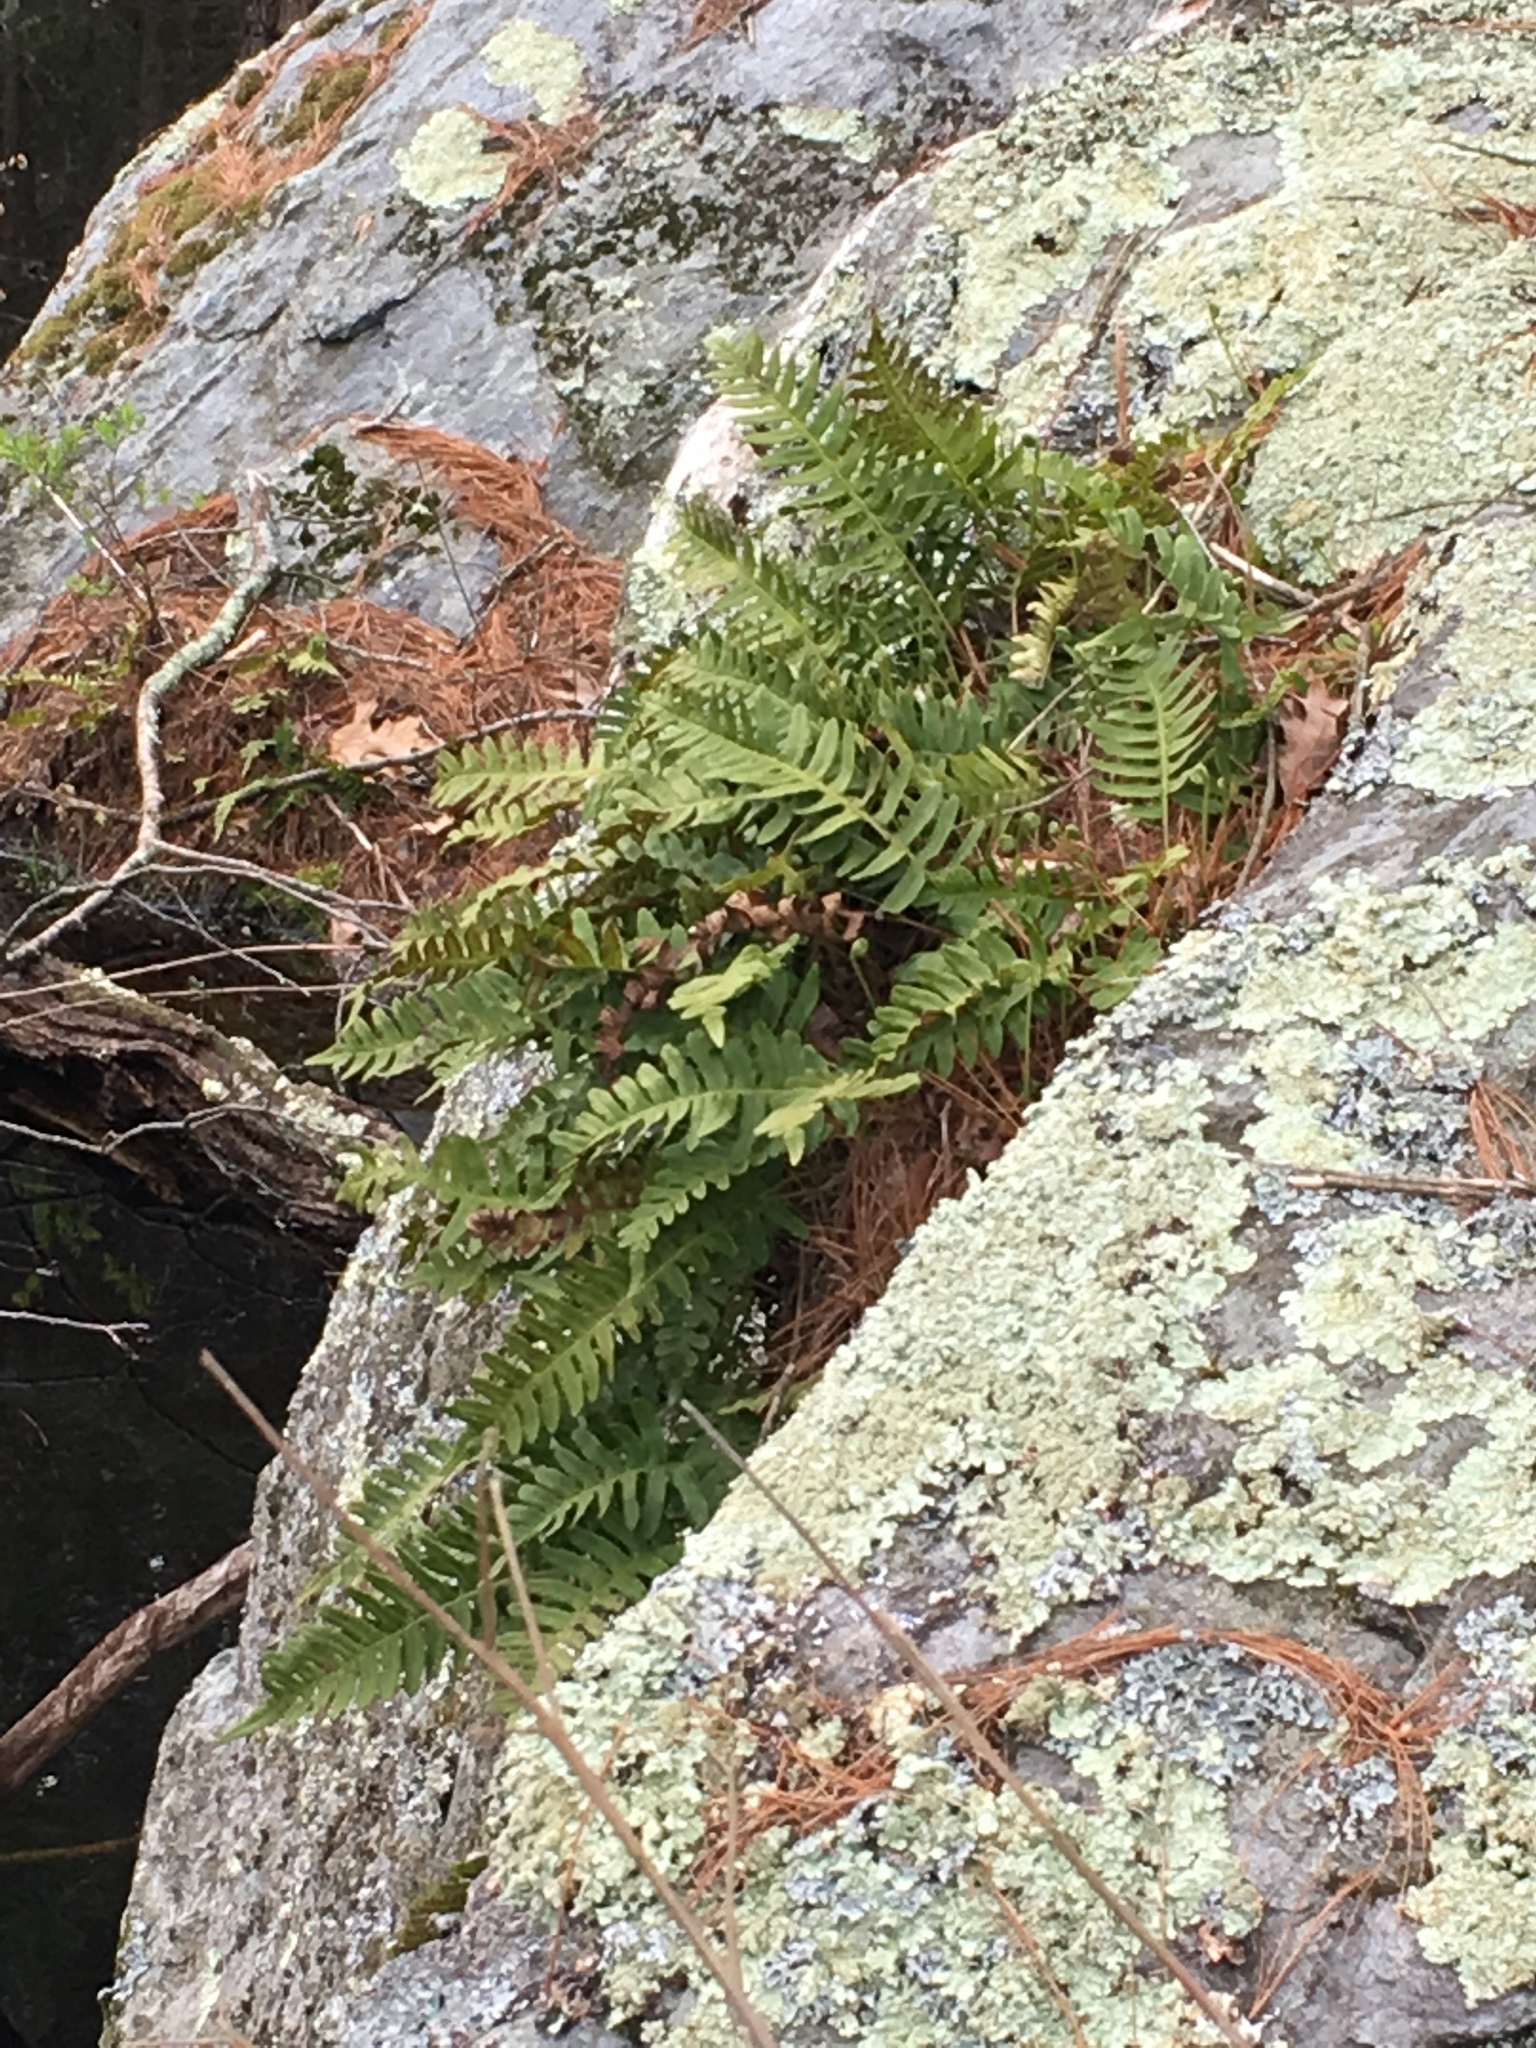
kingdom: Plantae
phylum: Tracheophyta
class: Polypodiopsida
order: Polypodiales
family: Polypodiaceae
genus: Polypodium
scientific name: Polypodium virginianum
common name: American wall fern
